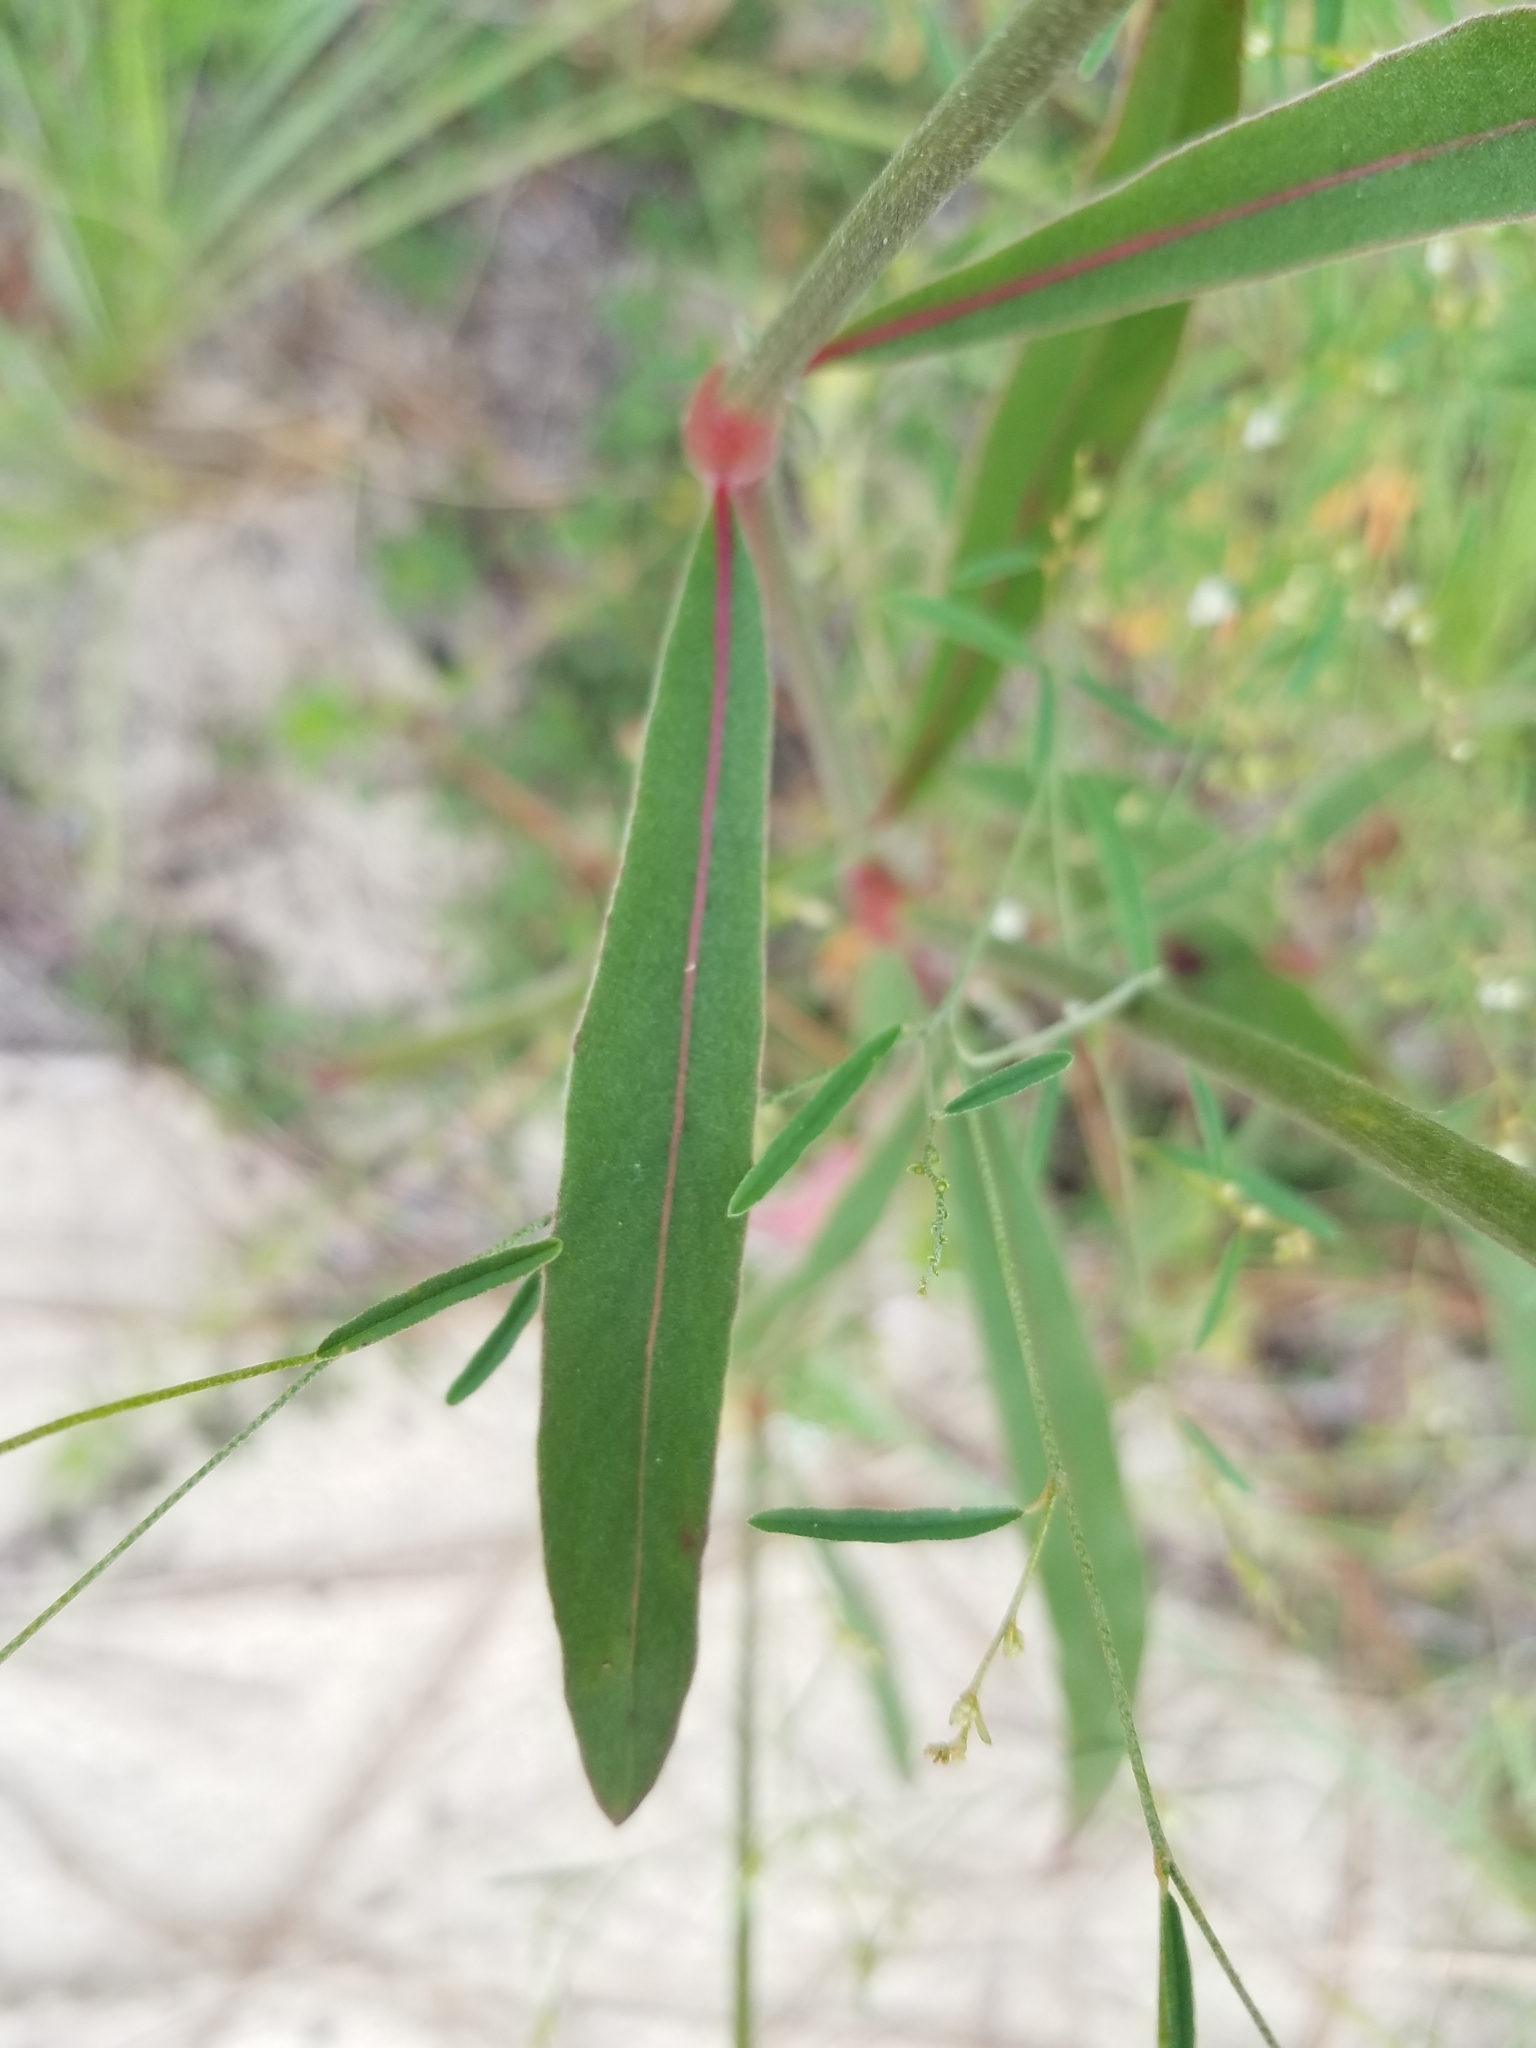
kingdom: Plantae
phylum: Tracheophyta
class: Magnoliopsida
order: Caryophyllales
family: Amaranthaceae
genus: Froelichia
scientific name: Froelichia floridana
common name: Florida snake-cotton
